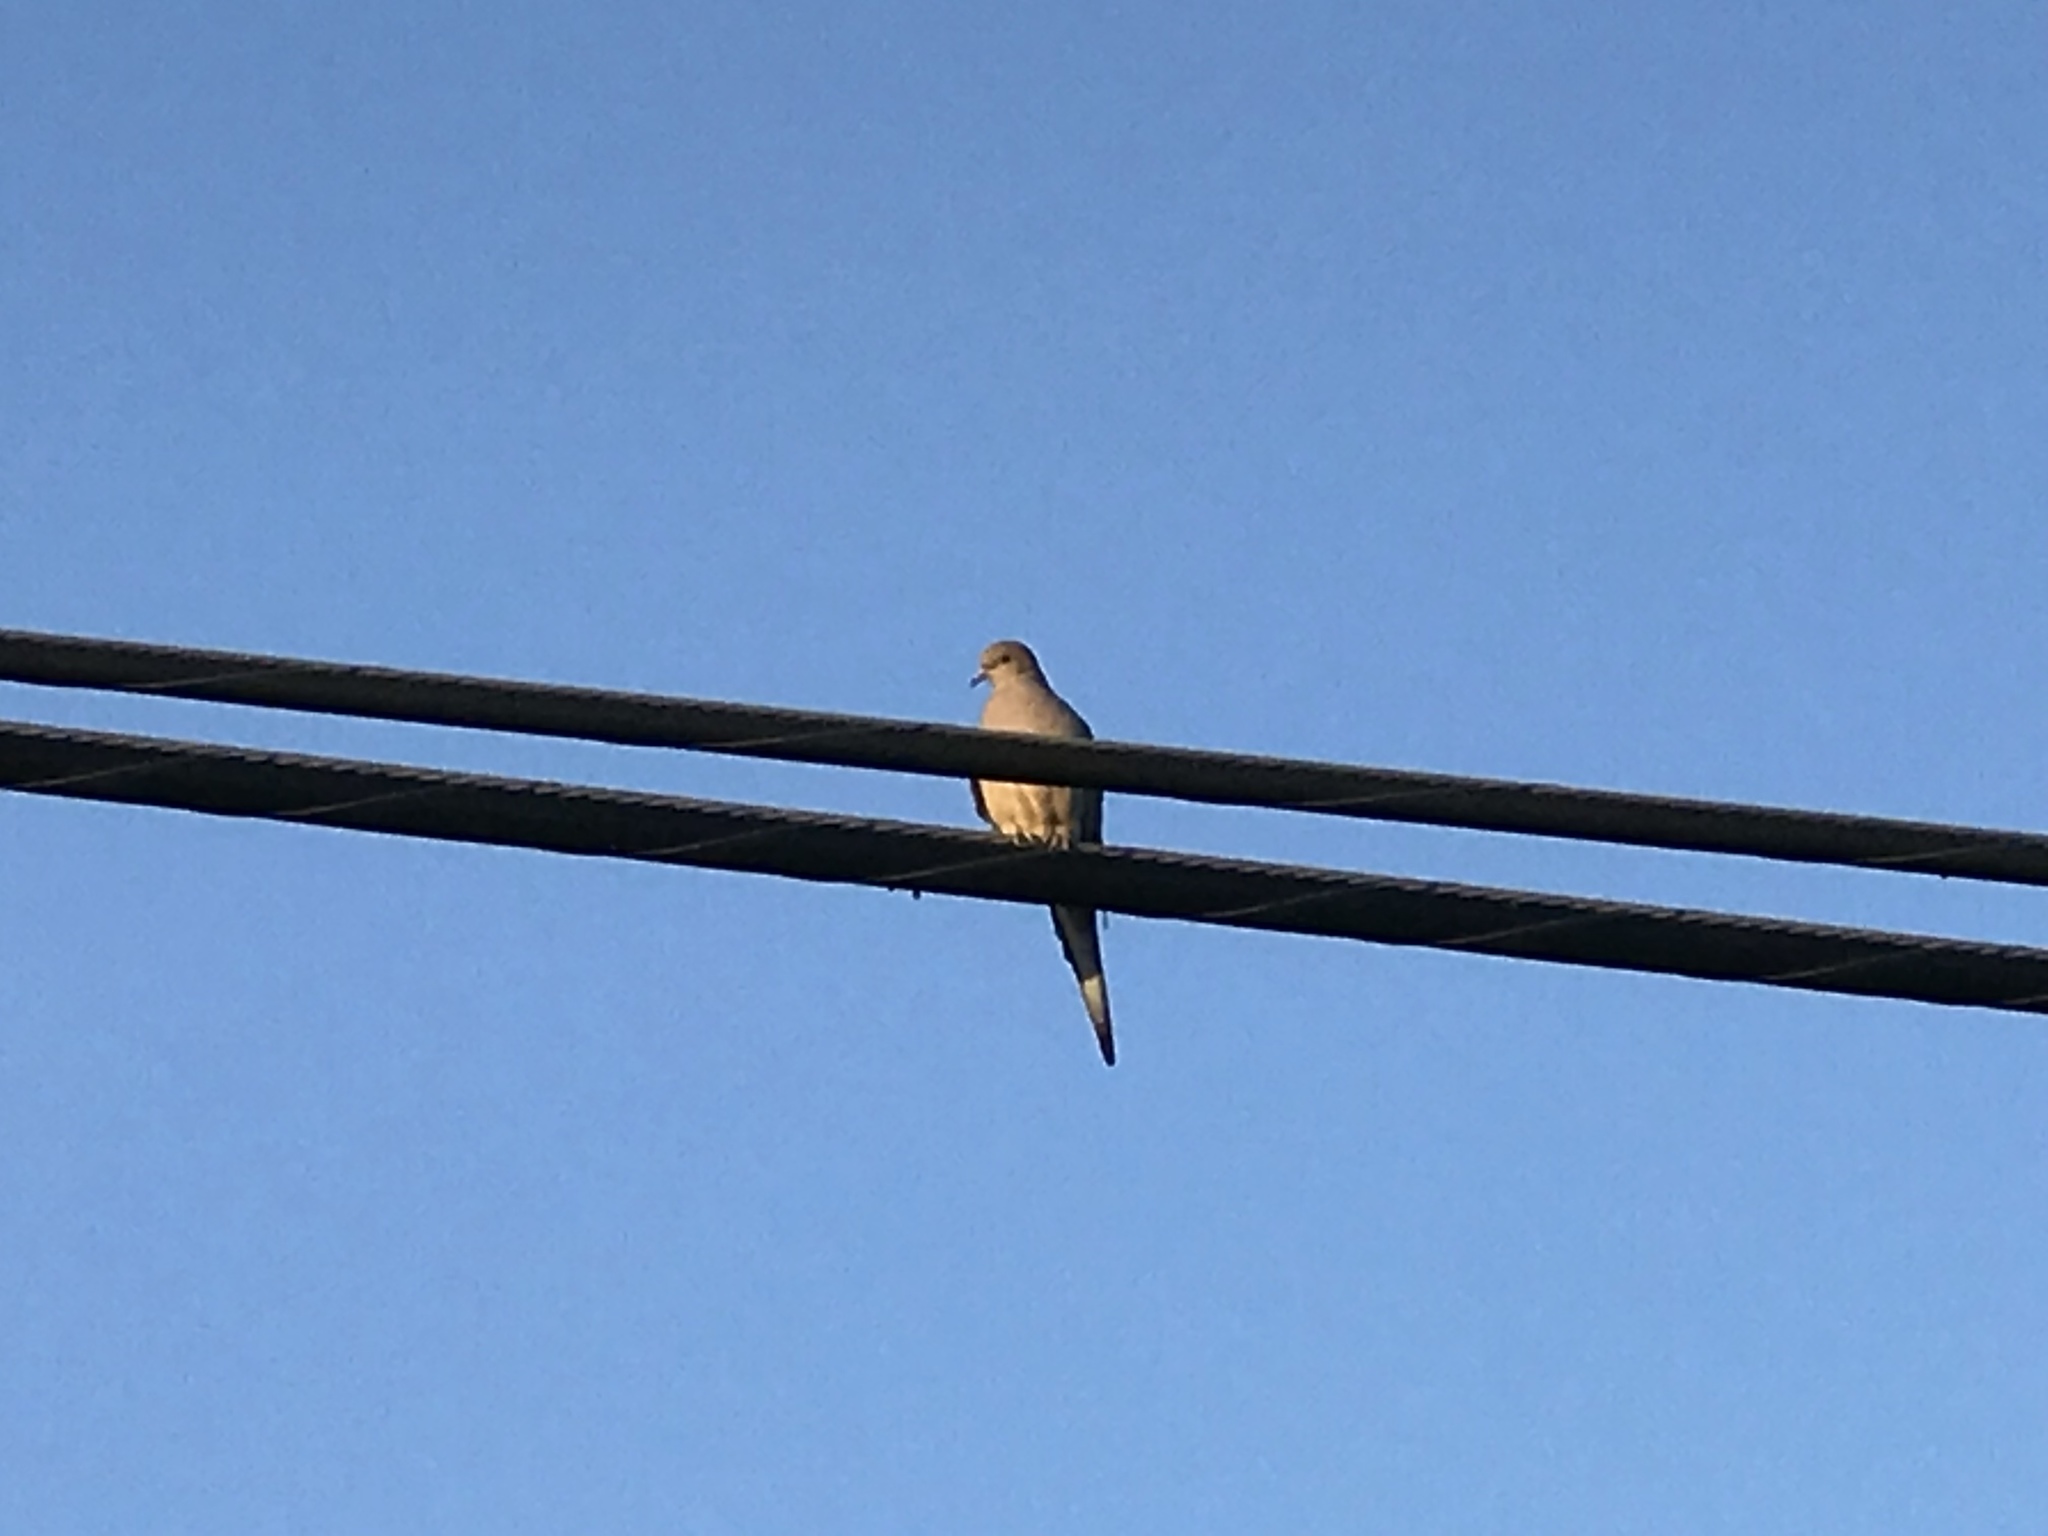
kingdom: Animalia
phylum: Chordata
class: Aves
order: Columbiformes
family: Columbidae
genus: Zenaida
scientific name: Zenaida macroura
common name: Mourning dove
